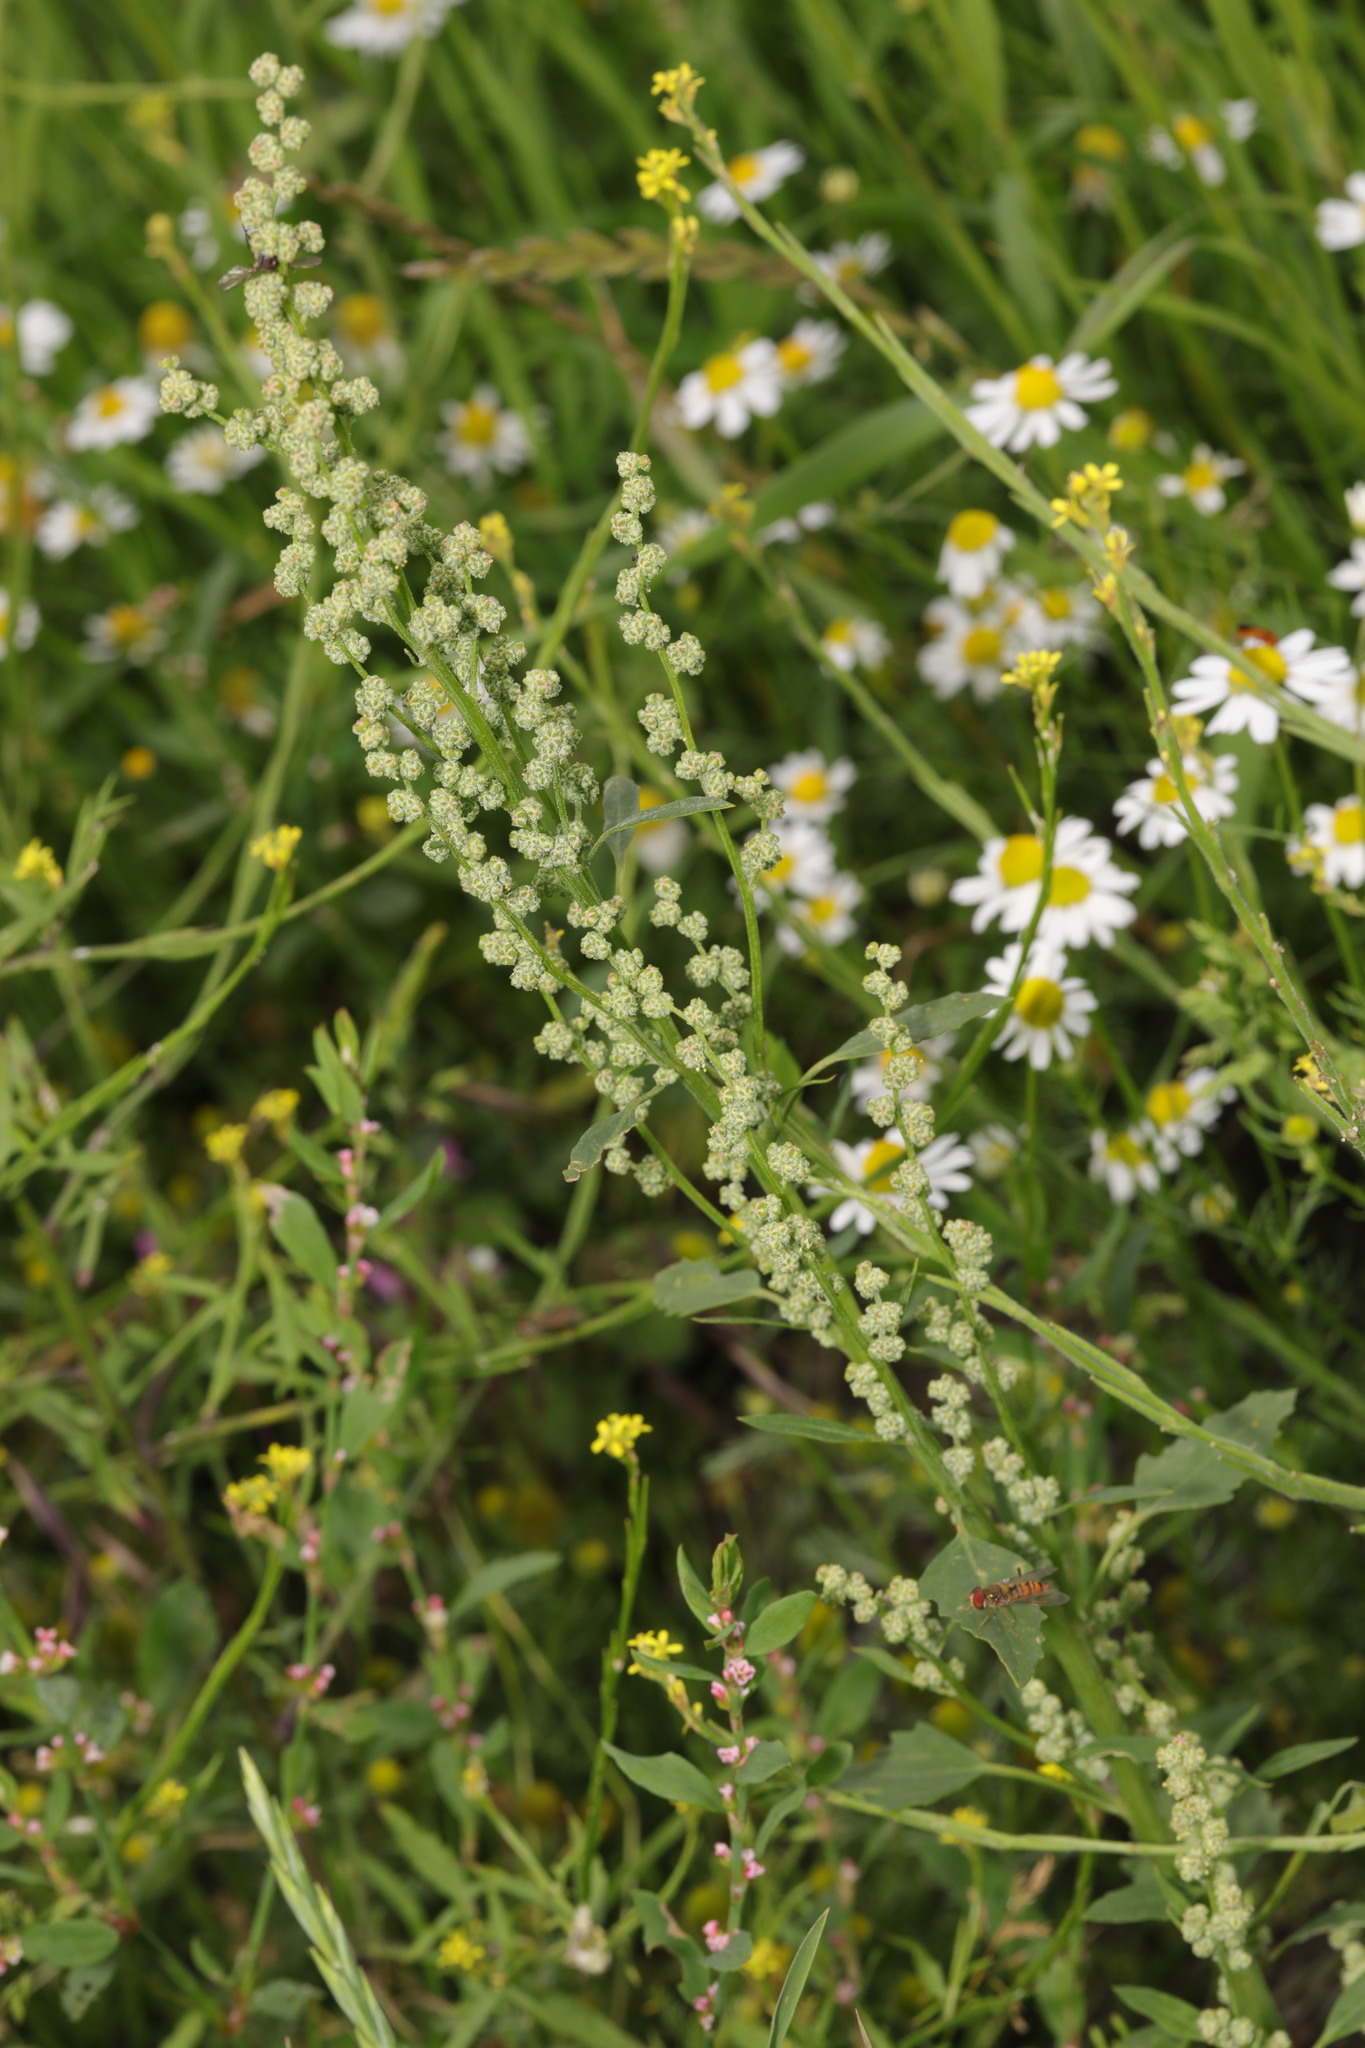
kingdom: Plantae
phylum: Tracheophyta
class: Magnoliopsida
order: Caryophyllales
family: Amaranthaceae
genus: Chenopodium
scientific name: Chenopodium album
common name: Fat-hen
